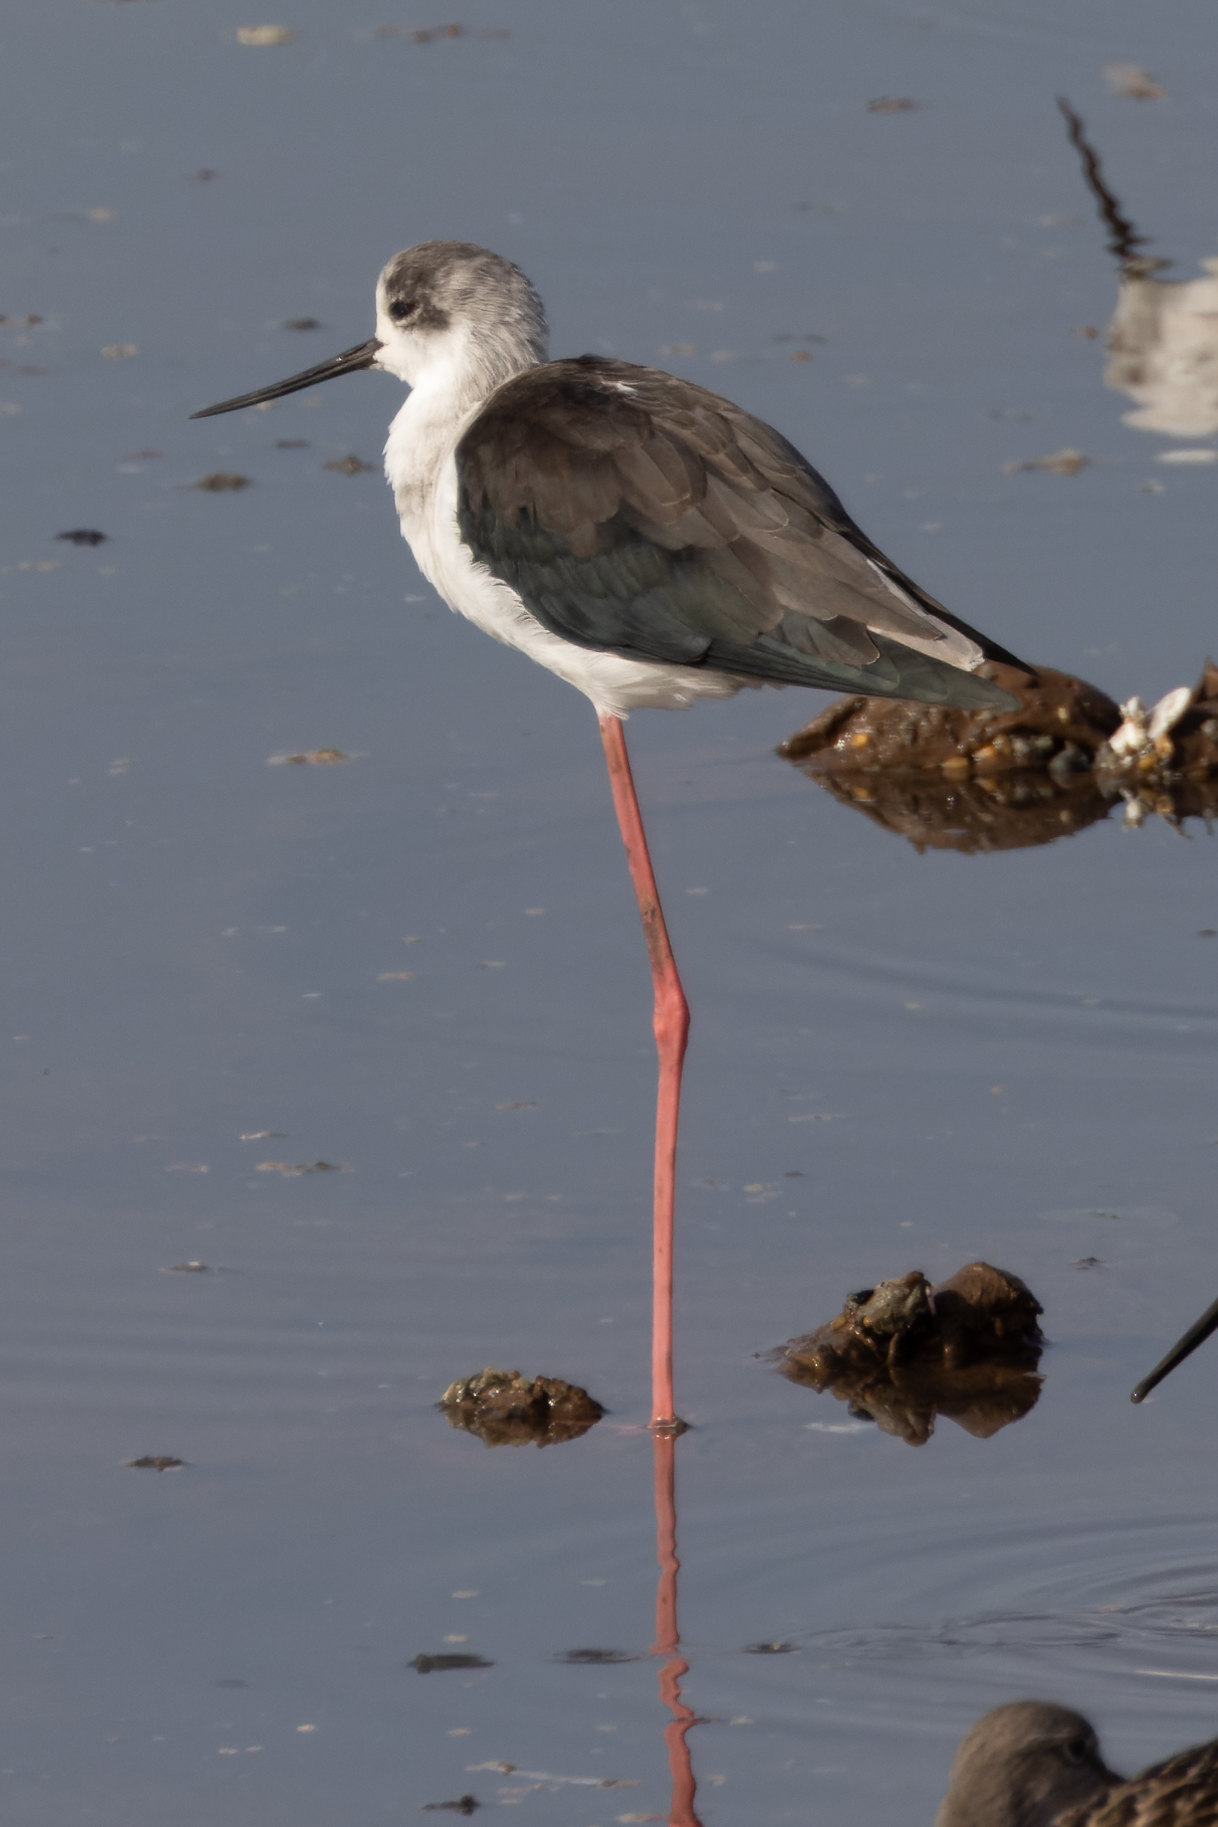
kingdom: Animalia
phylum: Chordata
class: Aves
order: Charadriiformes
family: Recurvirostridae
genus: Himantopus
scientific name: Himantopus himantopus
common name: Black-winged stilt
